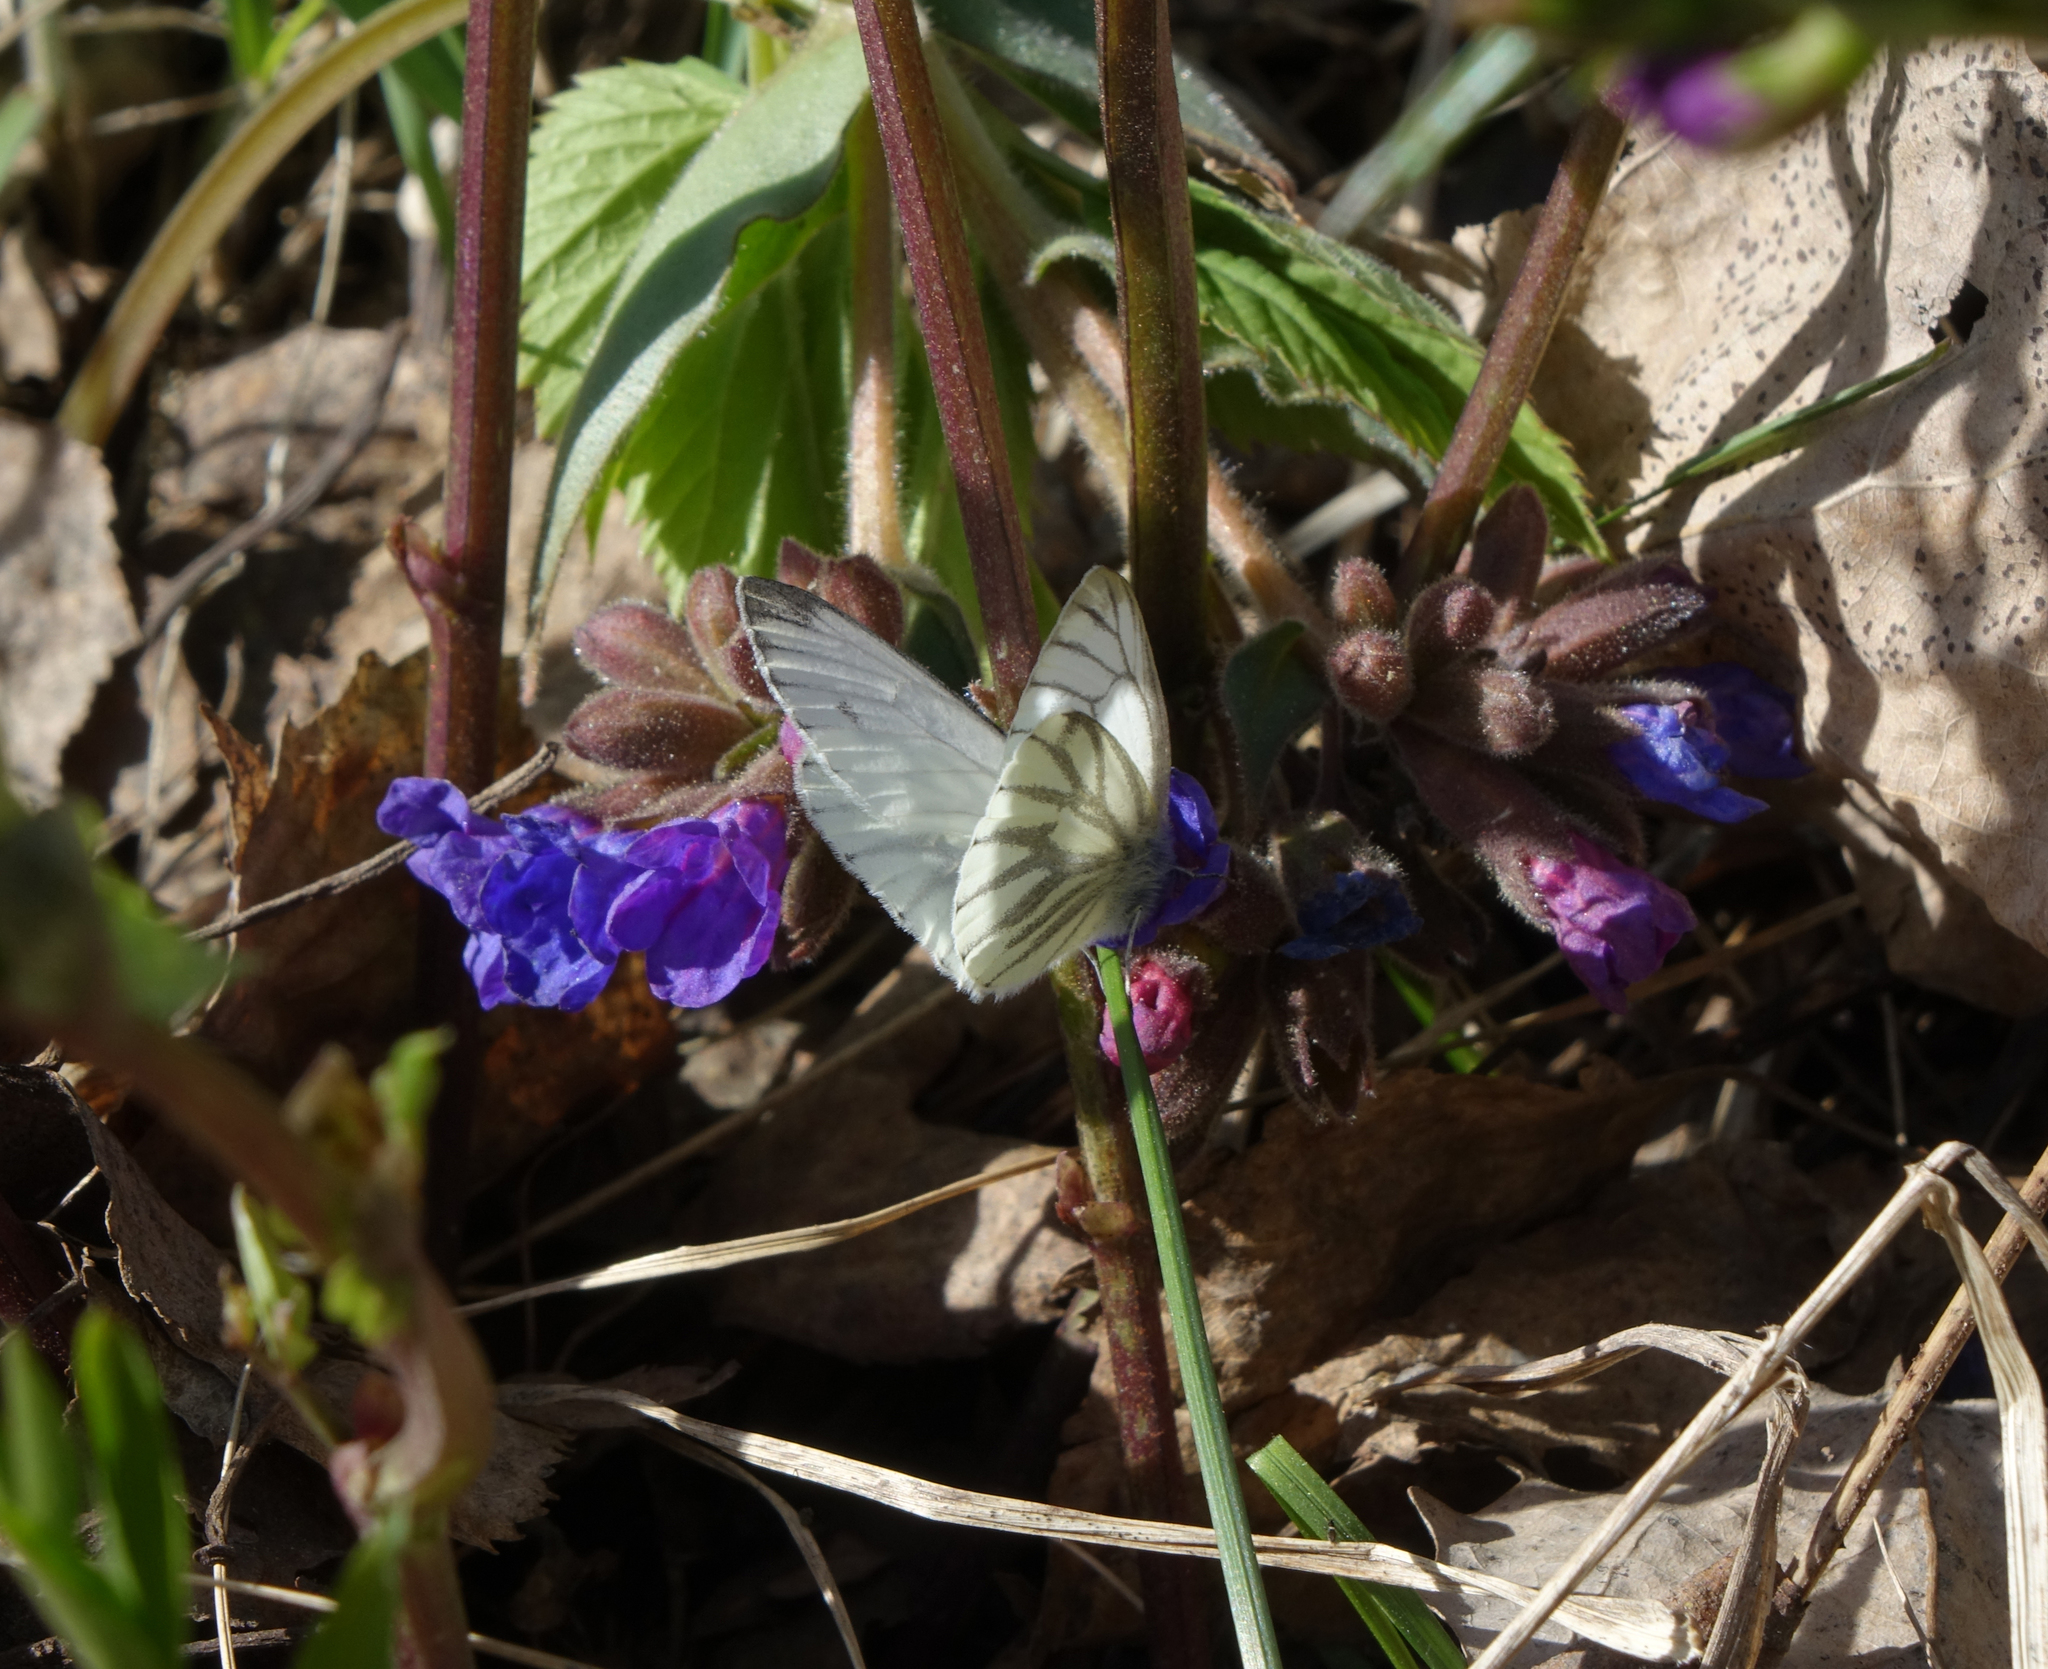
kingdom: Plantae
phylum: Tracheophyta
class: Magnoliopsida
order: Boraginales
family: Boraginaceae
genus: Pulmonaria
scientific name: Pulmonaria mollis
